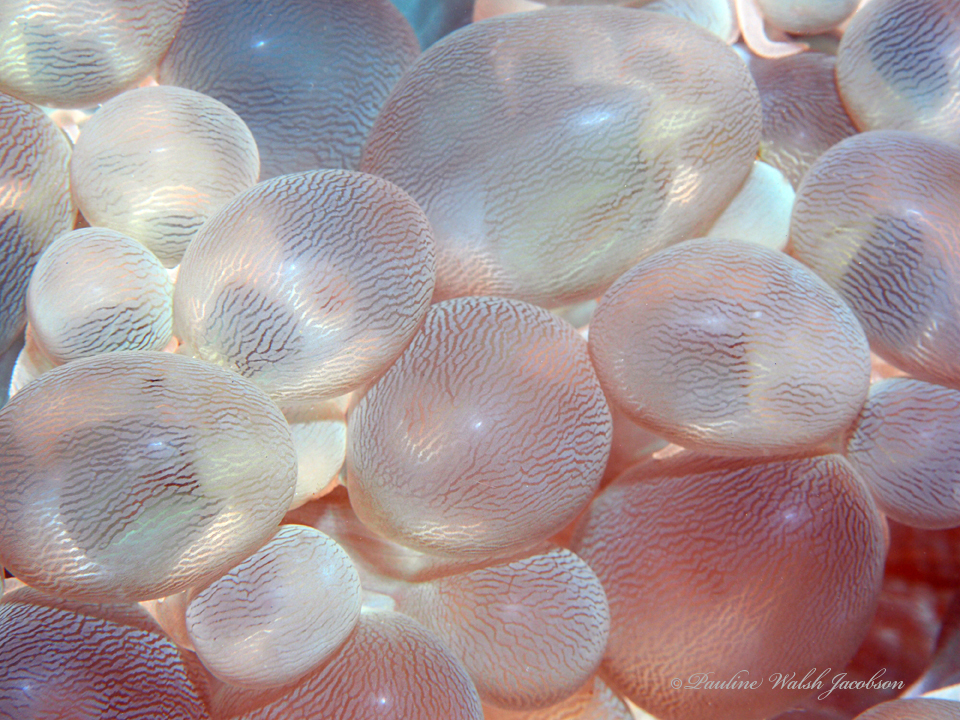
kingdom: Animalia
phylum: Cnidaria
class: Anthozoa
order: Scleractinia
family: Plerogyridae
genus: Plerogyra
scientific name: Plerogyra sinuosa
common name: Bubble coral
